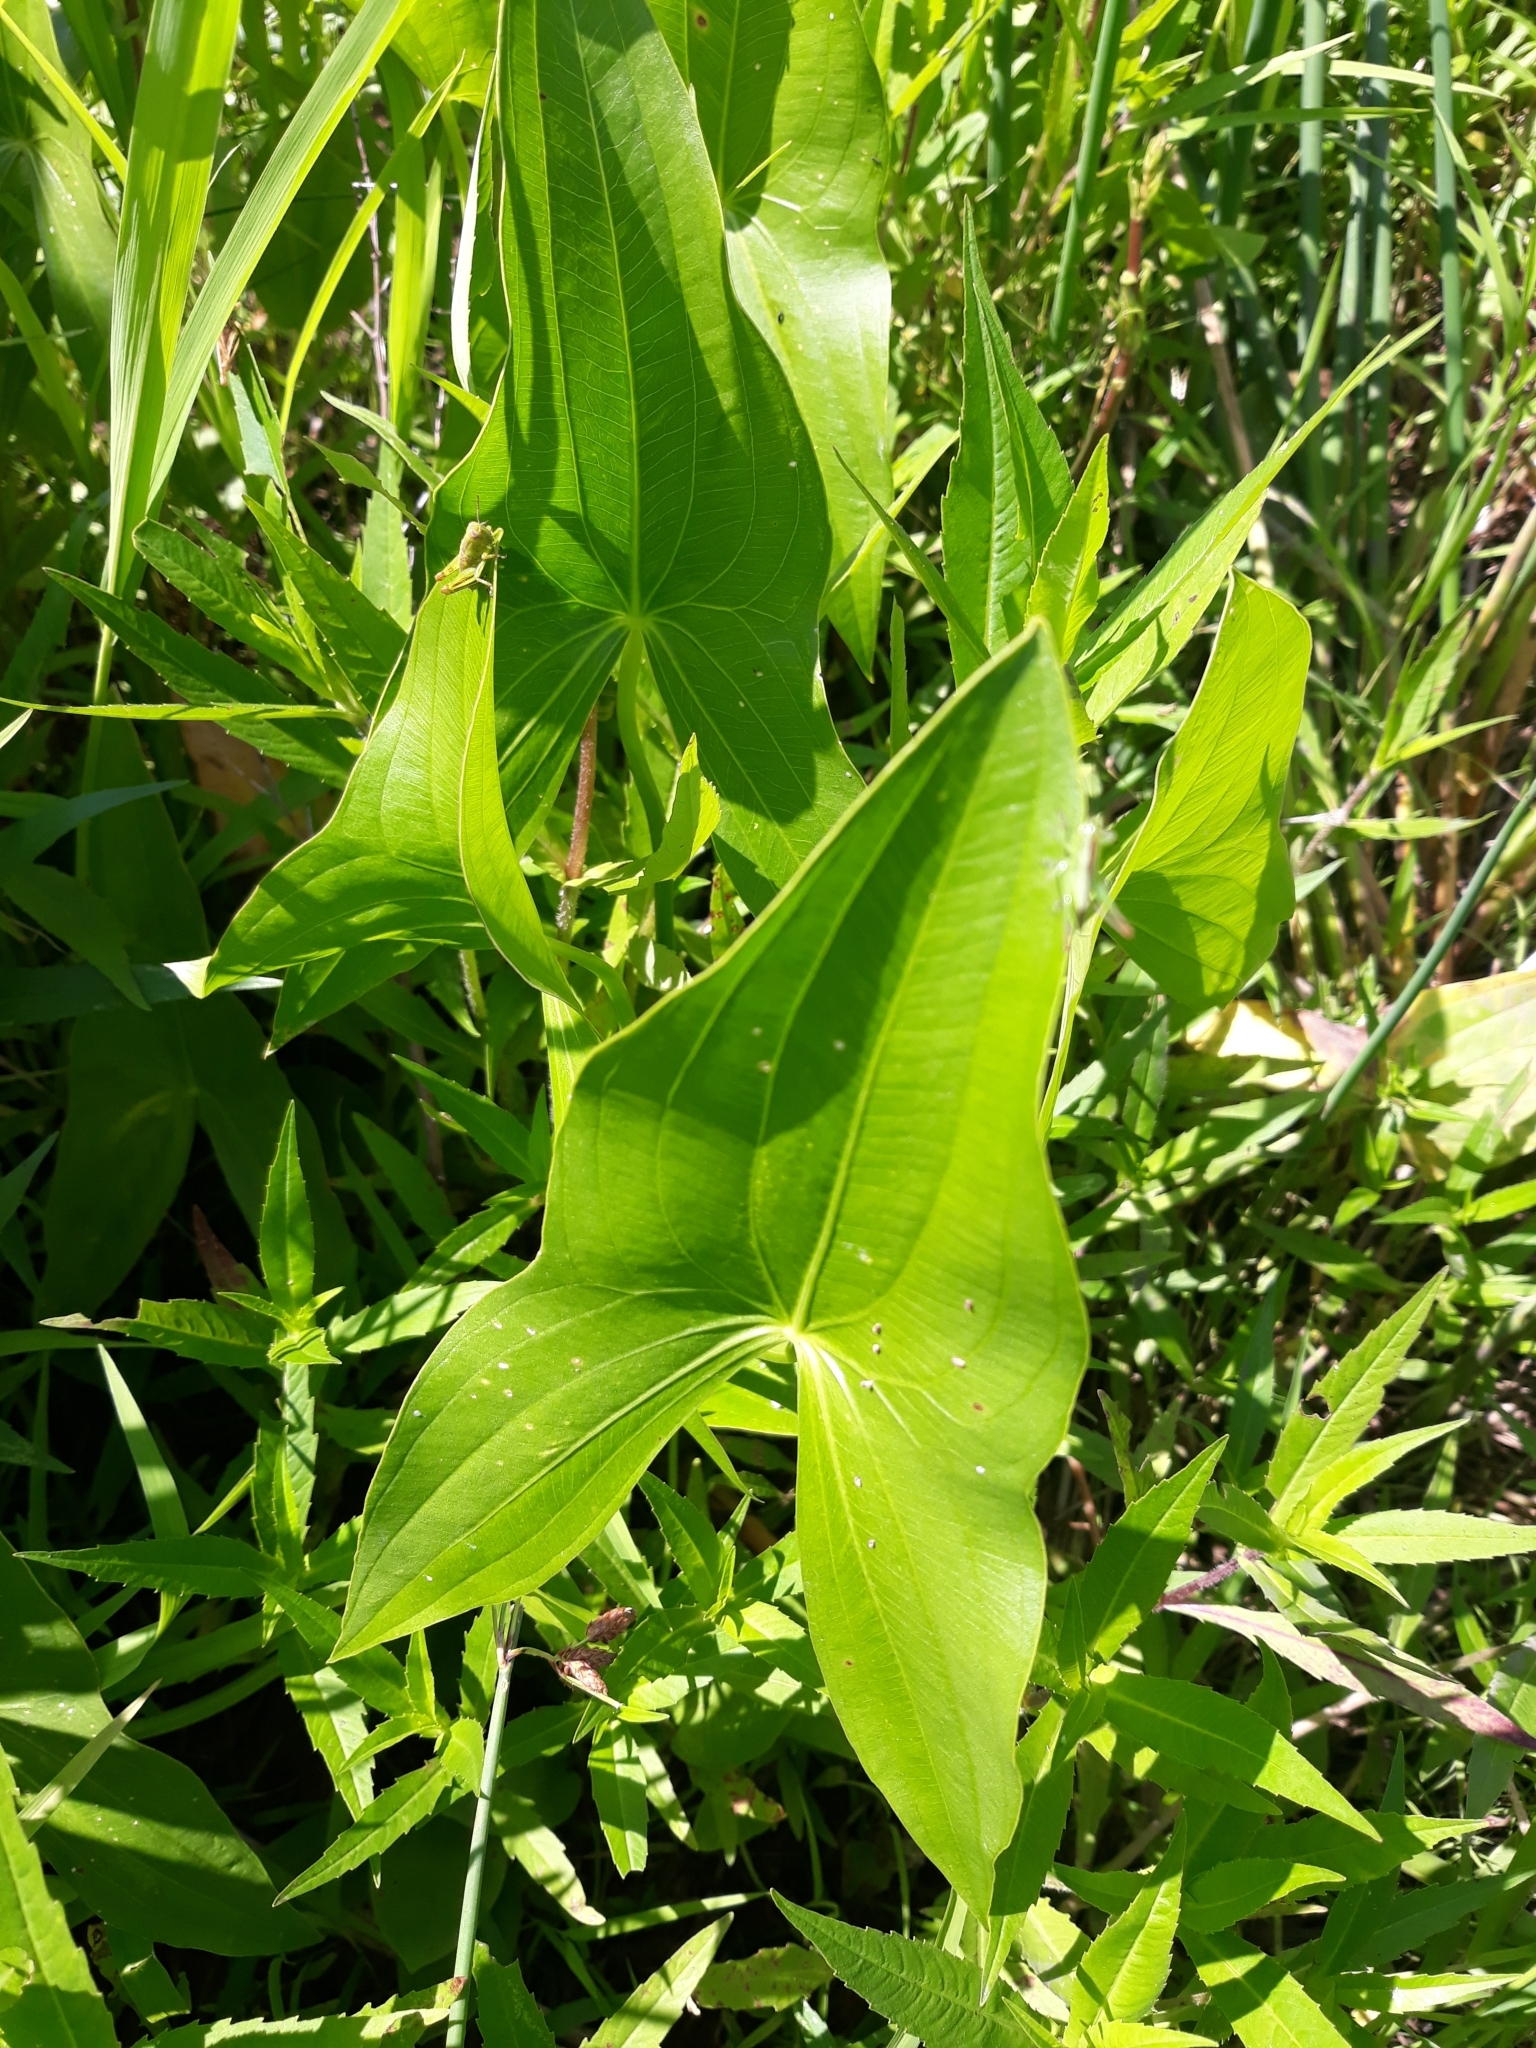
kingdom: Plantae
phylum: Tracheophyta
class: Liliopsida
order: Alismatales
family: Alismataceae
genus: Sagittaria
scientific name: Sagittaria latifolia
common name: Duck-potato
